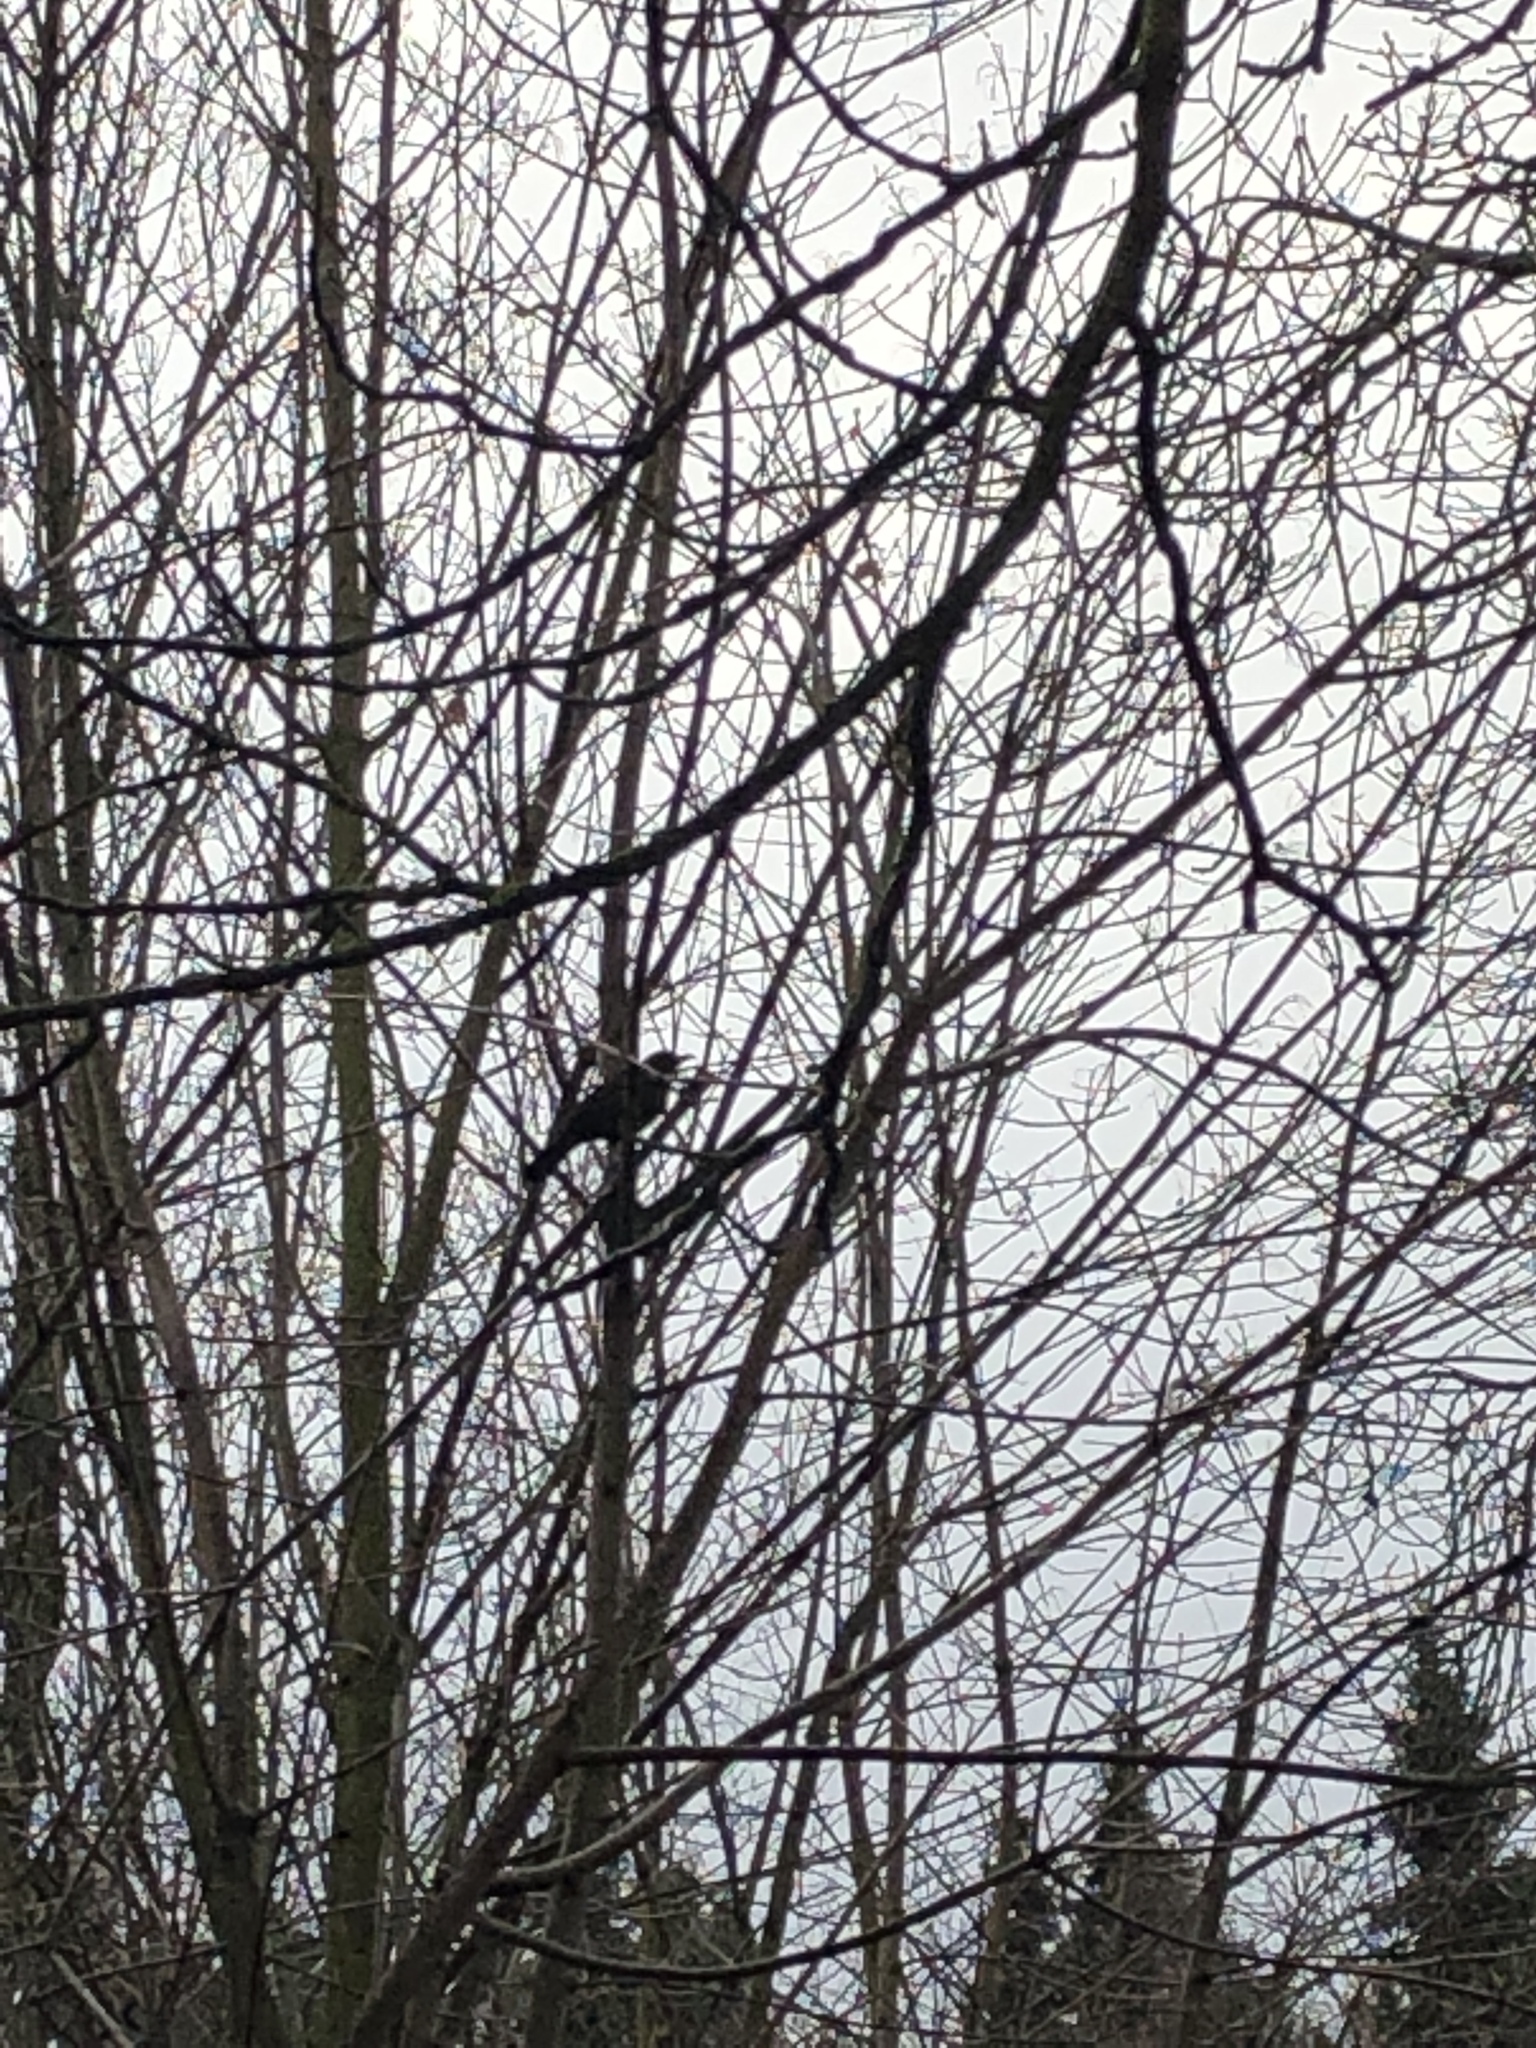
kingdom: Animalia
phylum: Chordata
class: Aves
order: Passeriformes
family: Turdidae
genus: Turdus
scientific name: Turdus merula
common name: Common blackbird
